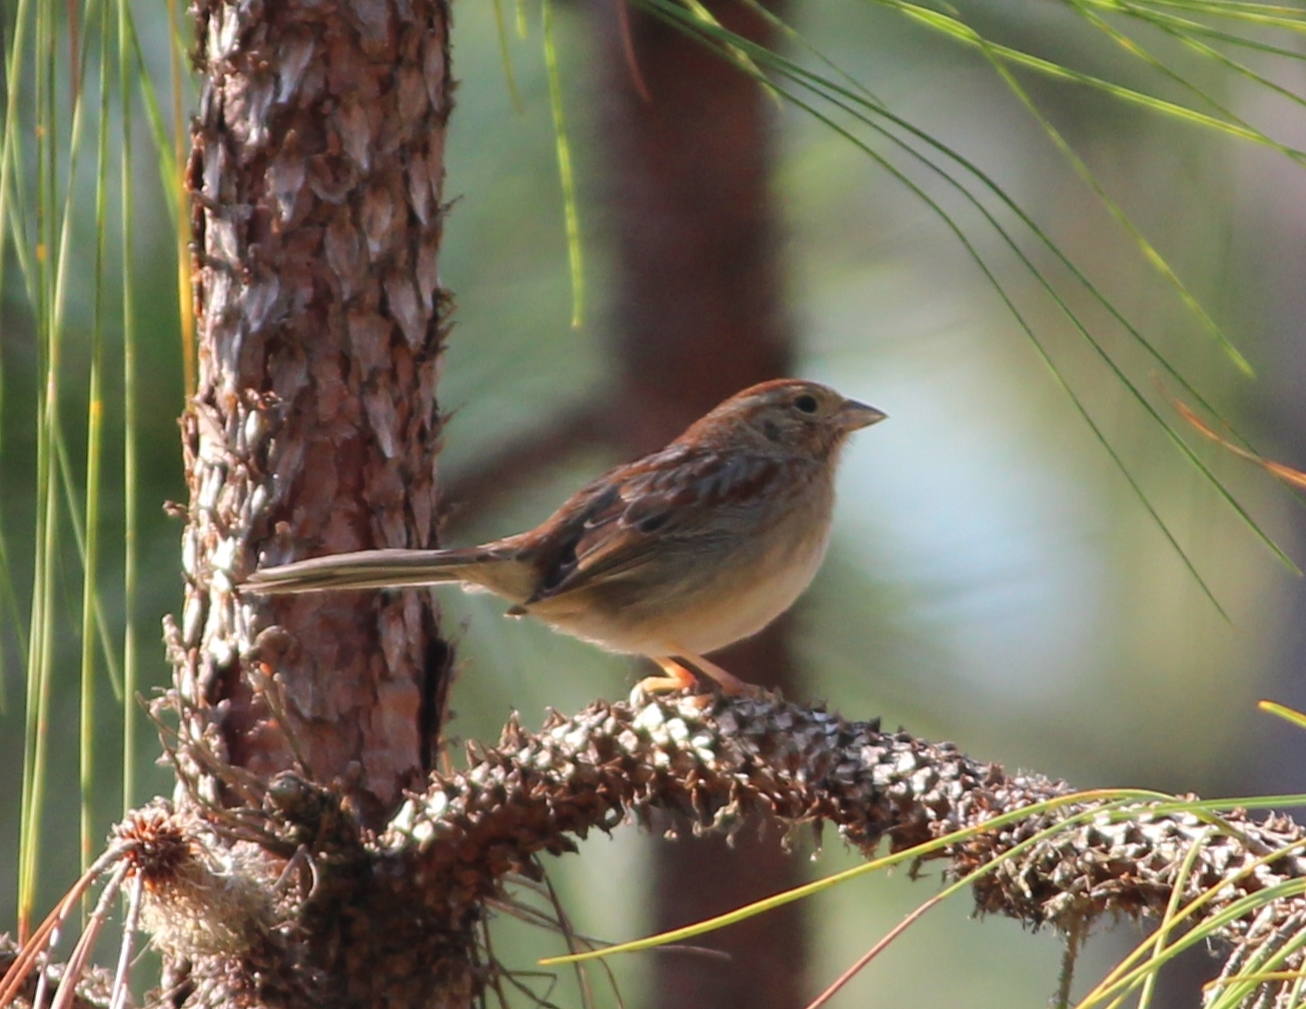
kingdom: Animalia
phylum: Chordata
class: Aves
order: Passeriformes
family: Passerellidae
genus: Peucaea
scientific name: Peucaea aestivalis
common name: Bachman's sparrow
